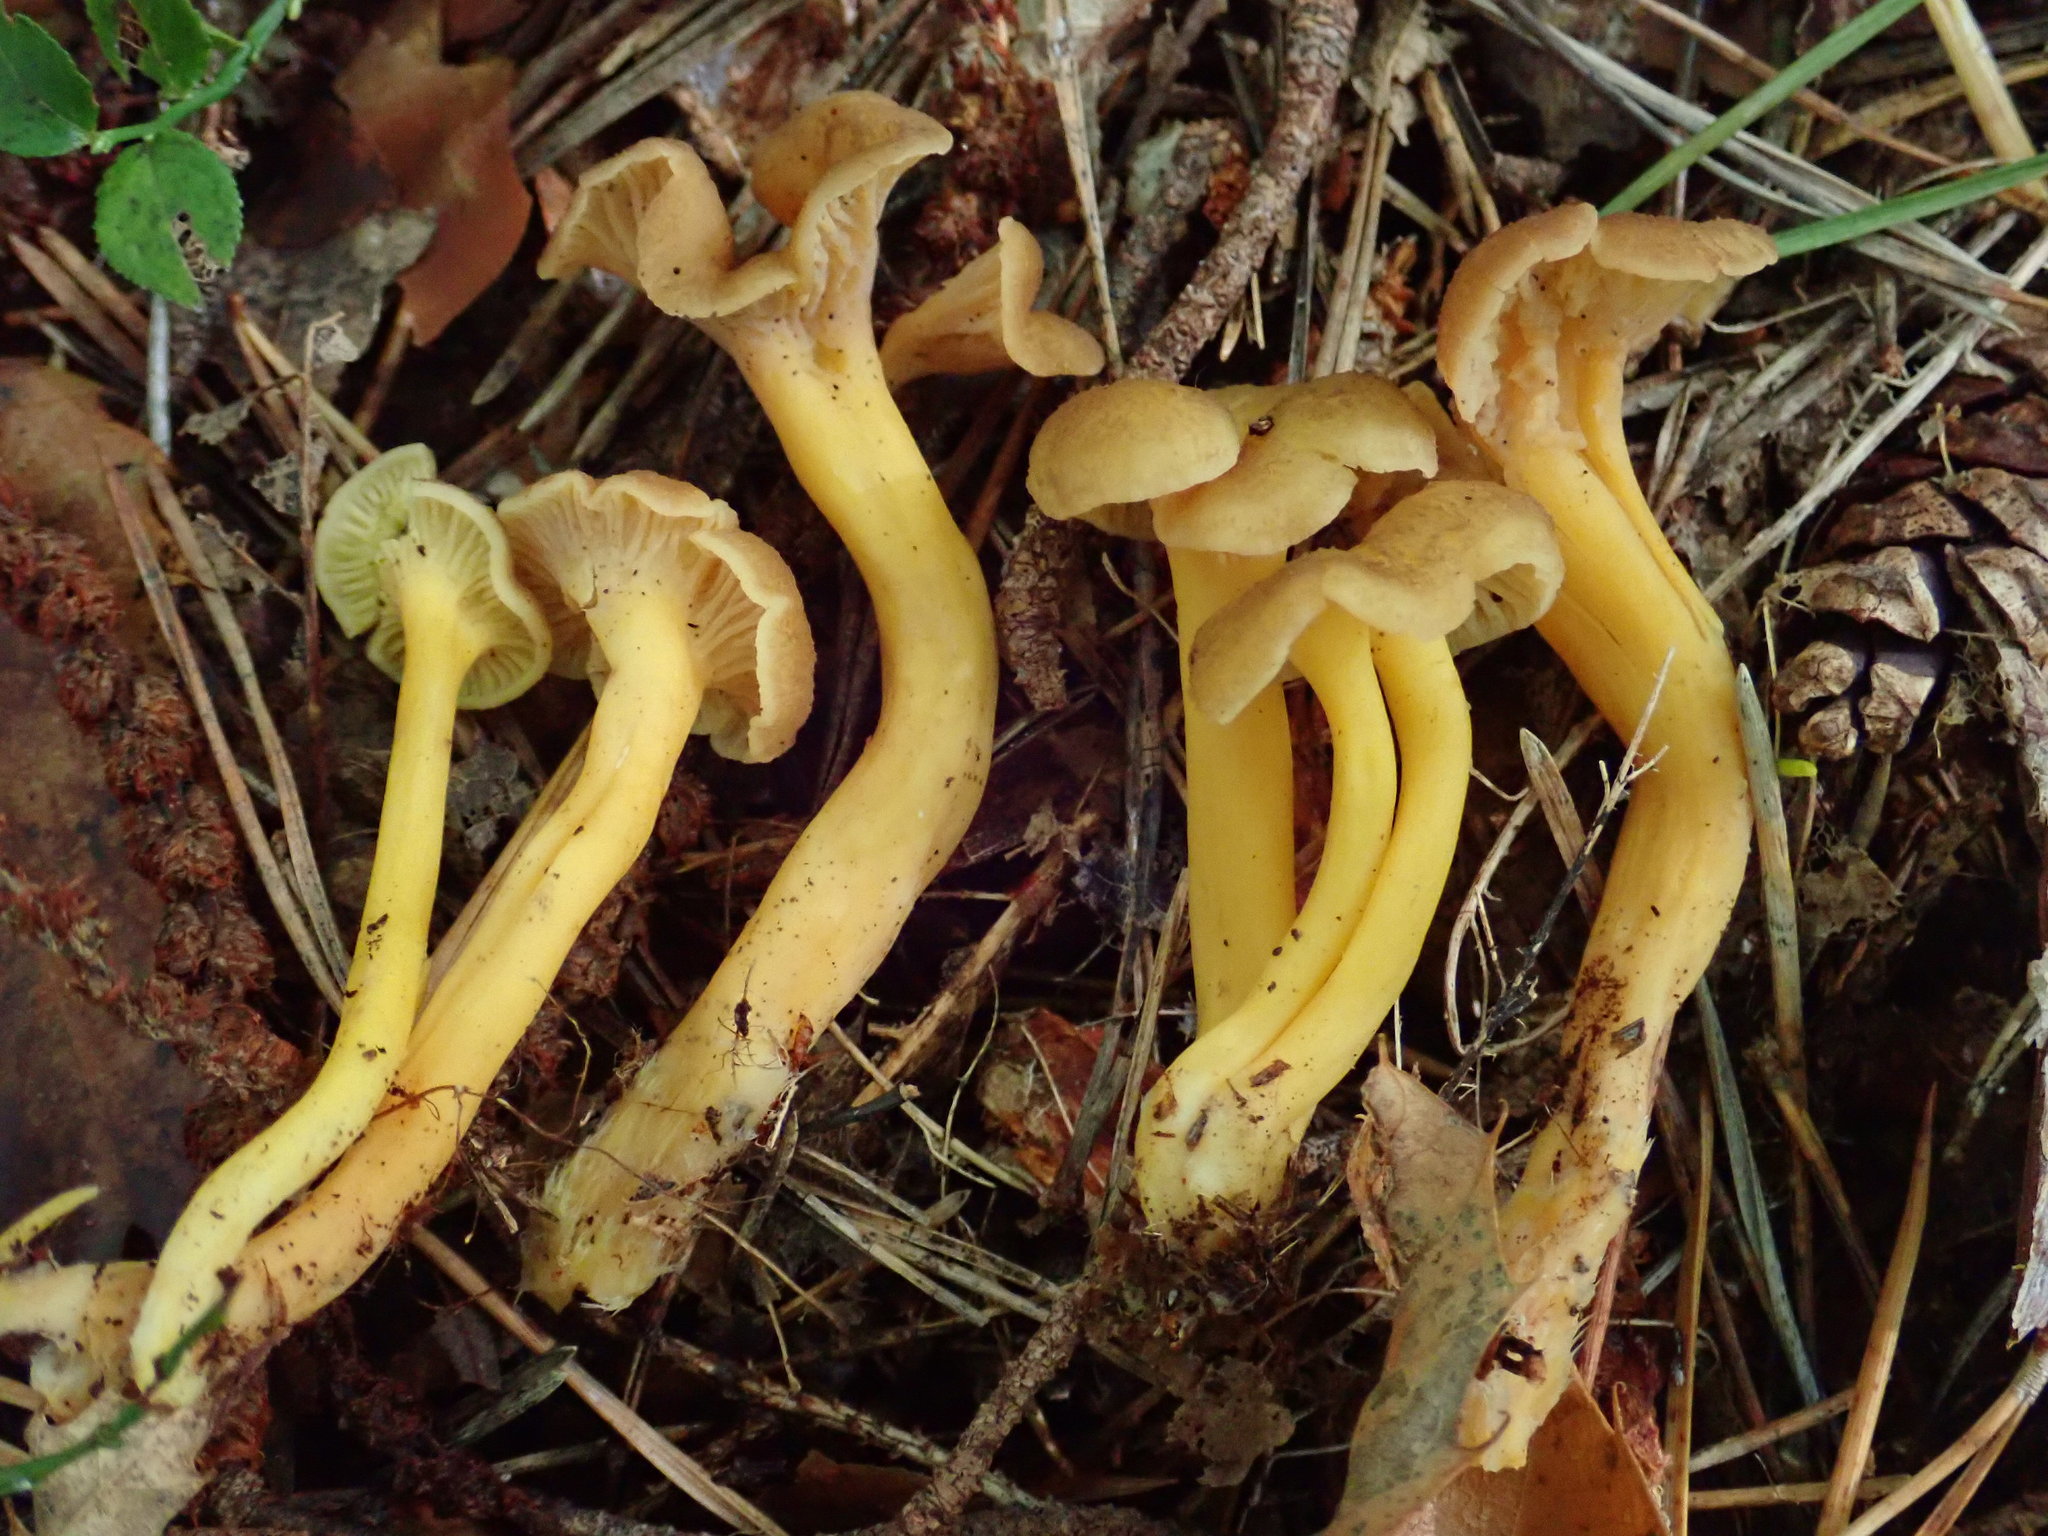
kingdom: Fungi
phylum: Basidiomycota
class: Agaricomycetes
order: Cantharellales
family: Hydnaceae
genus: Craterellus
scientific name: Craterellus tubaeformis
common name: Yellowfoot
